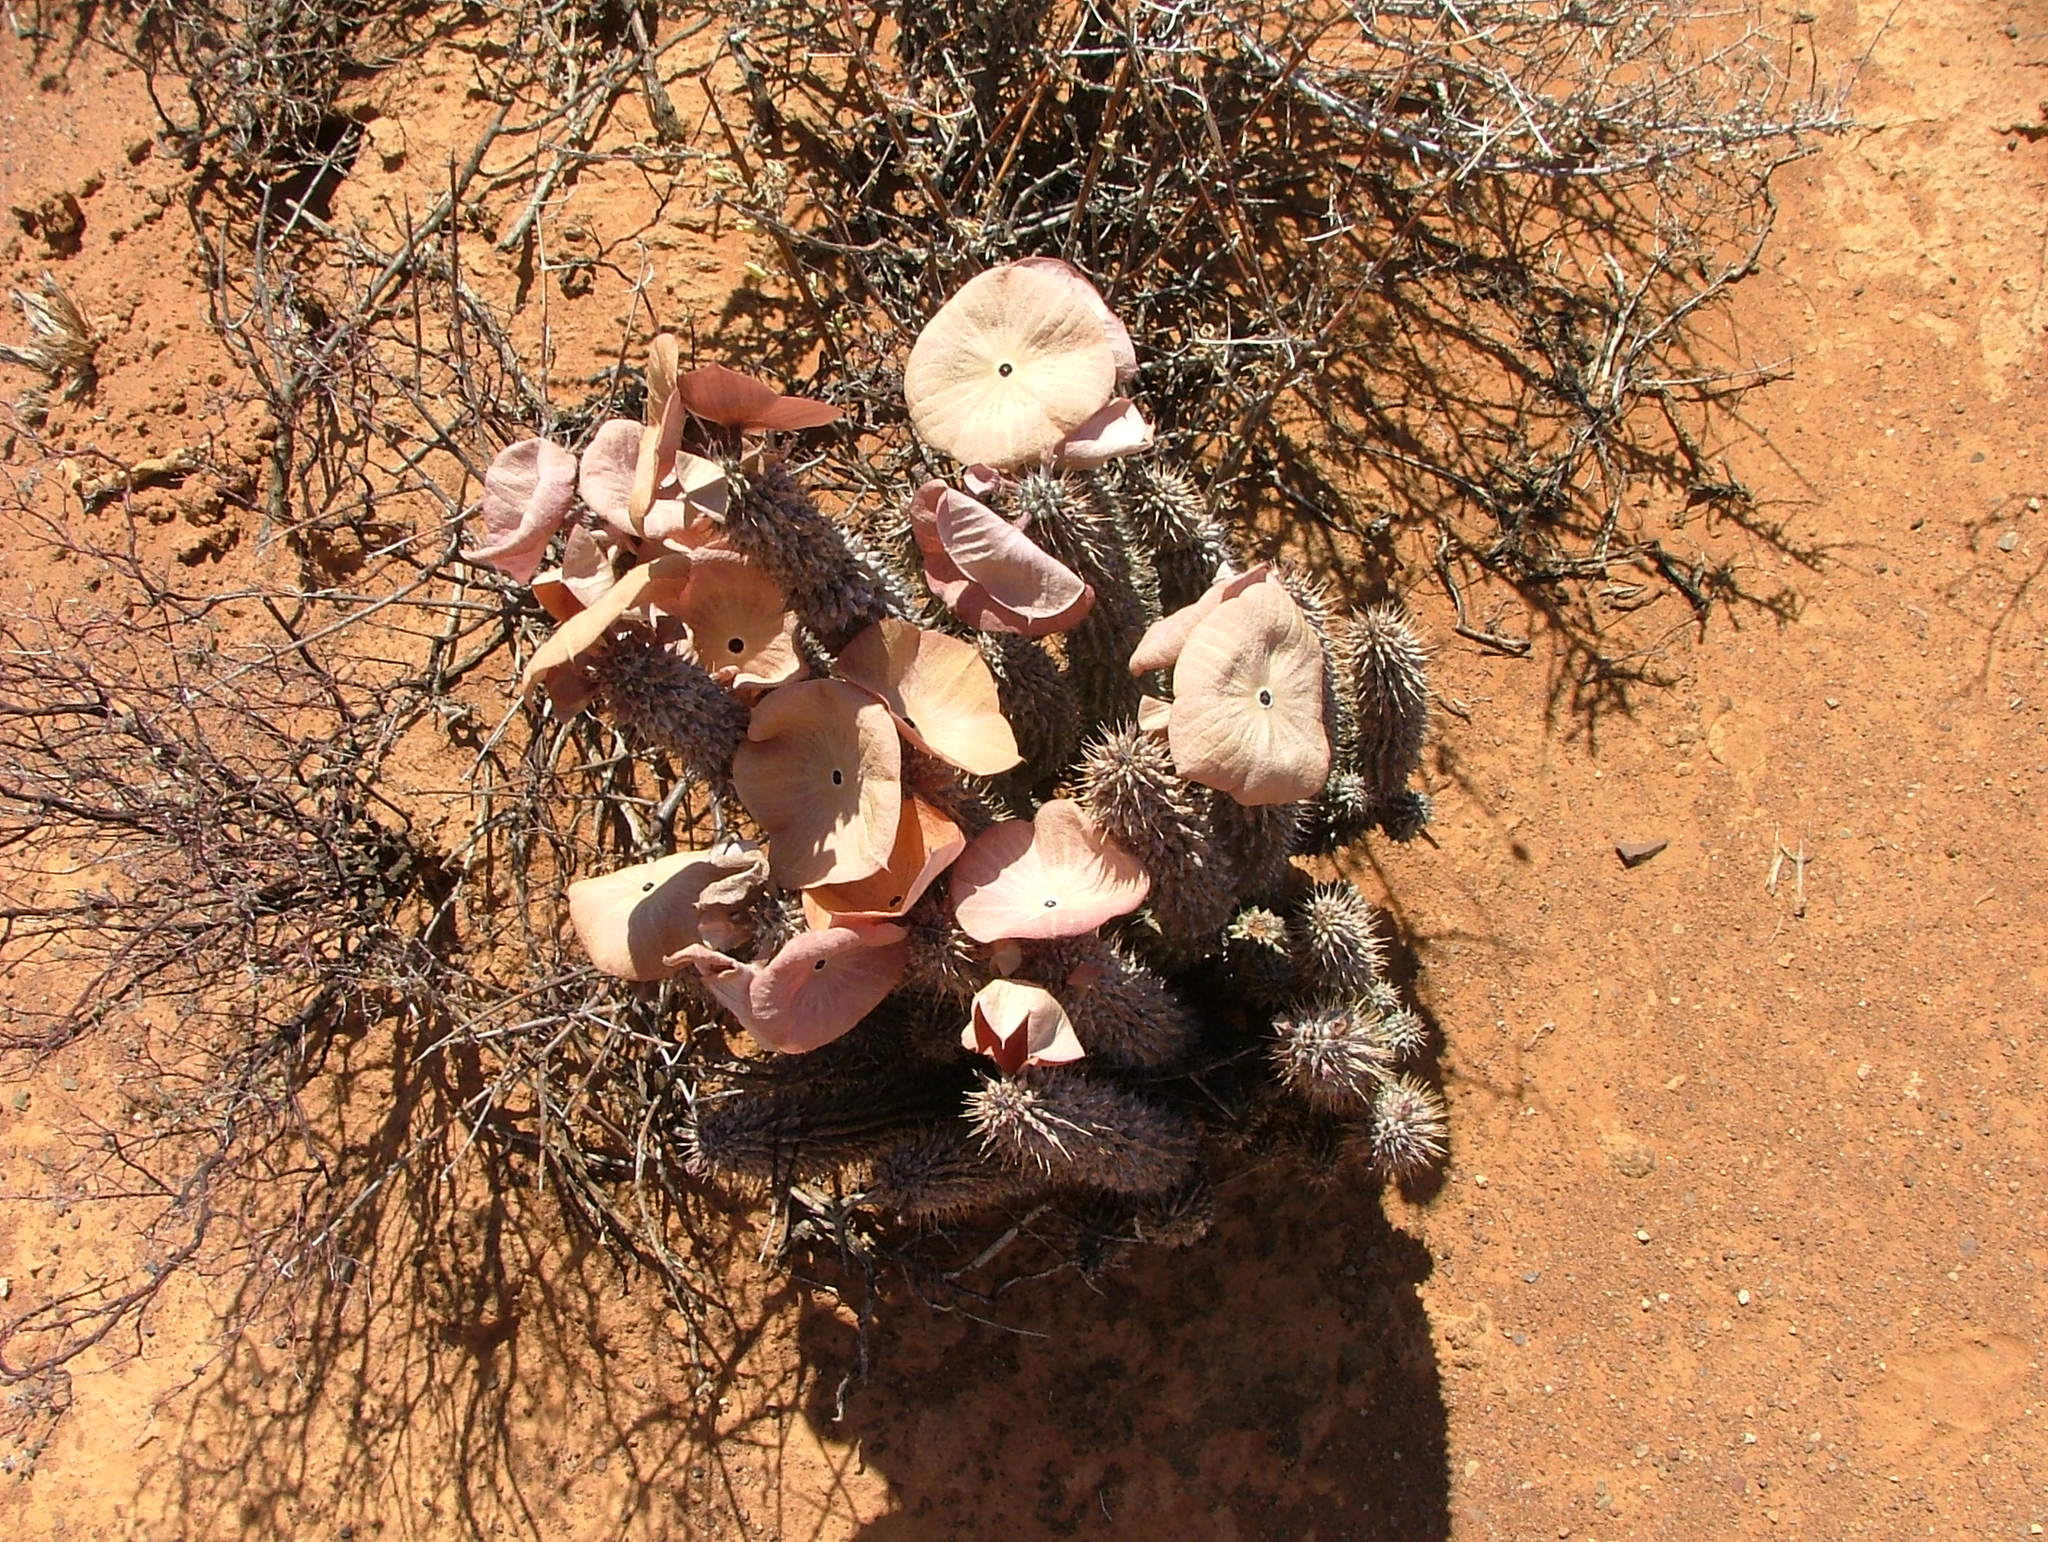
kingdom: Plantae
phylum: Tracheophyta
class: Magnoliopsida
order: Gentianales
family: Apocynaceae
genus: Hoodia
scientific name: Hoodia gordonii
